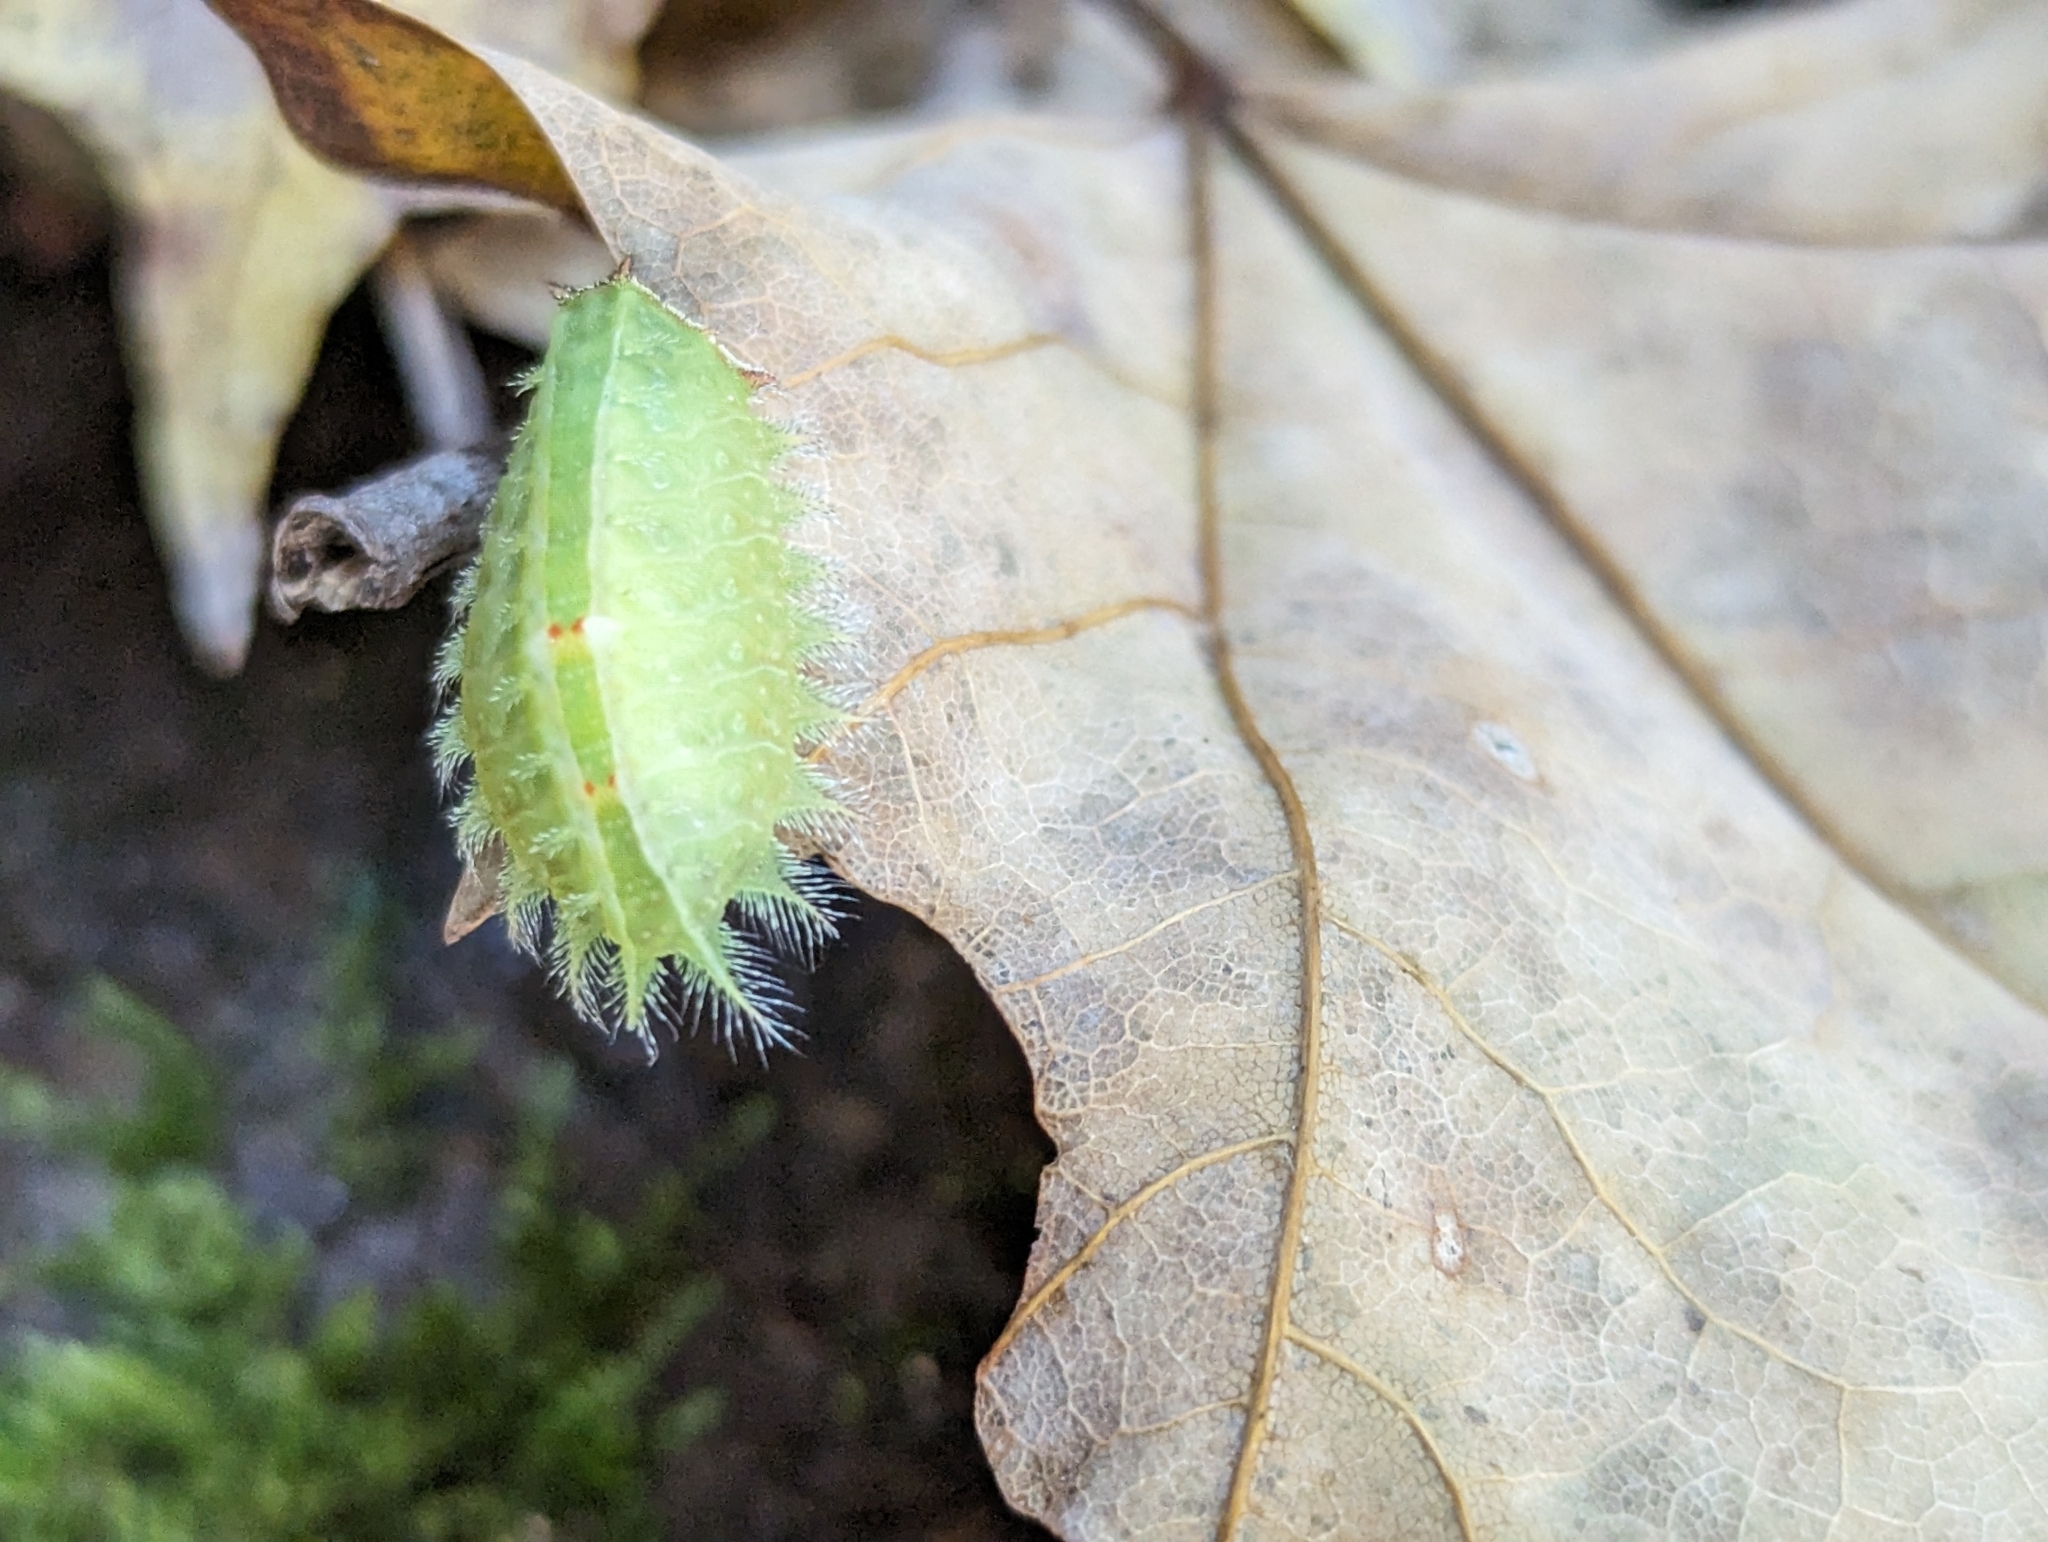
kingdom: Animalia
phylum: Arthropoda
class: Insecta
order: Lepidoptera
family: Limacodidae
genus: Isa
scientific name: Isa textula
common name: Crowned slug moth
